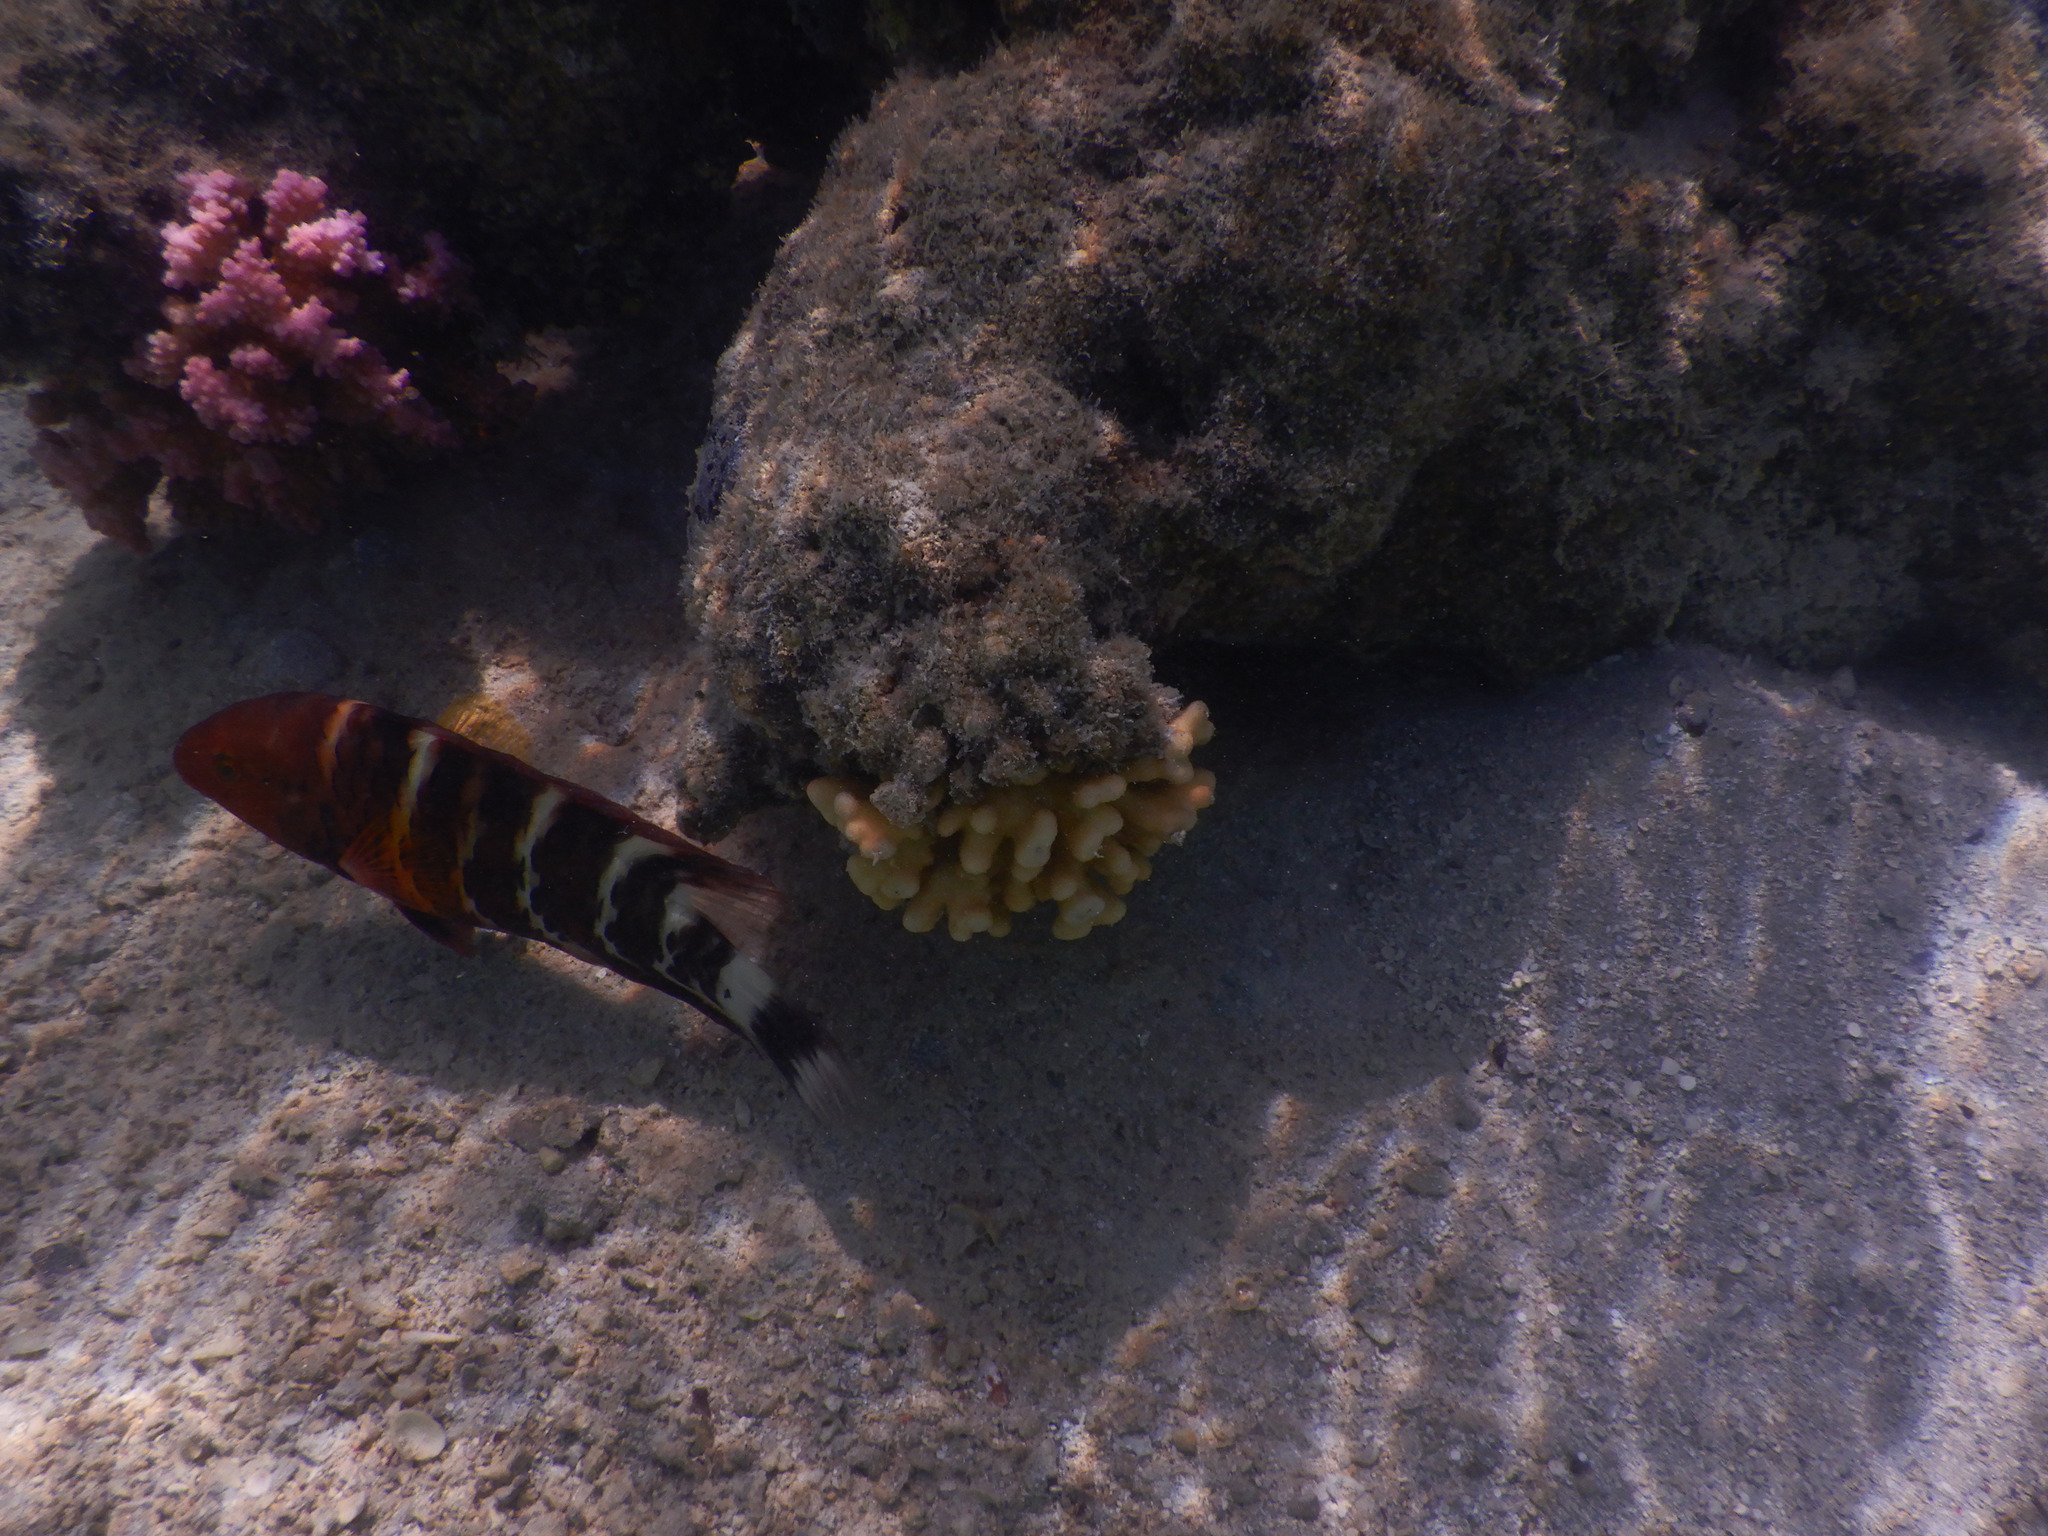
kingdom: Animalia
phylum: Chordata
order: Perciformes
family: Labridae
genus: Cheilinus
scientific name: Cheilinus fasciatus
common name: Red-breasted wrasse
